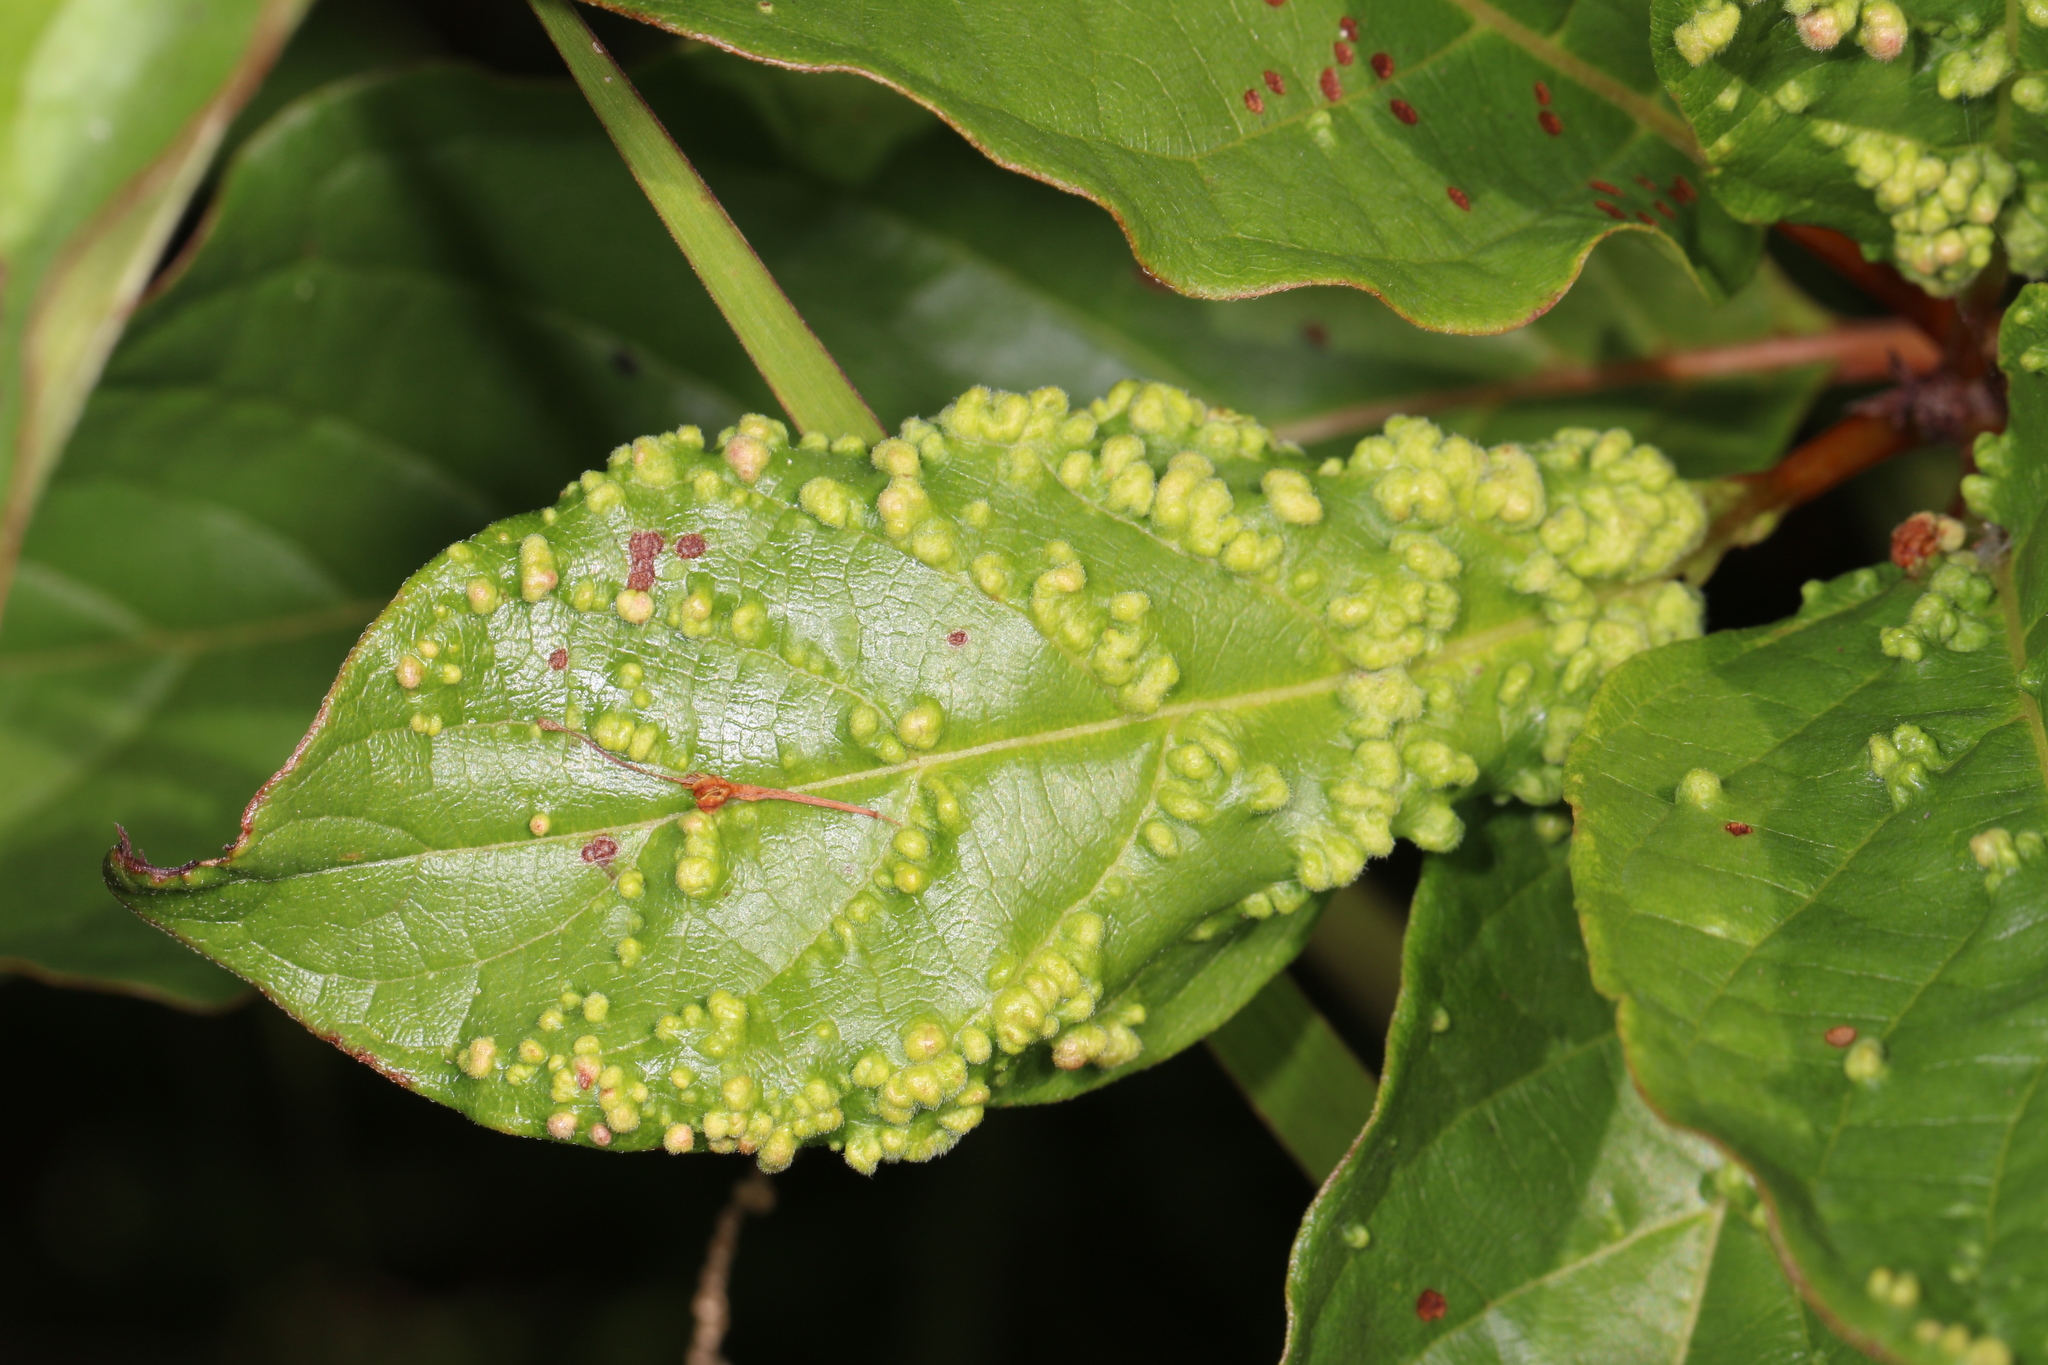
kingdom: Animalia
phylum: Arthropoda
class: Arachnida
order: Trombidiformes
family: Eriophyidae
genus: Aceria
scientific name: Aceria
